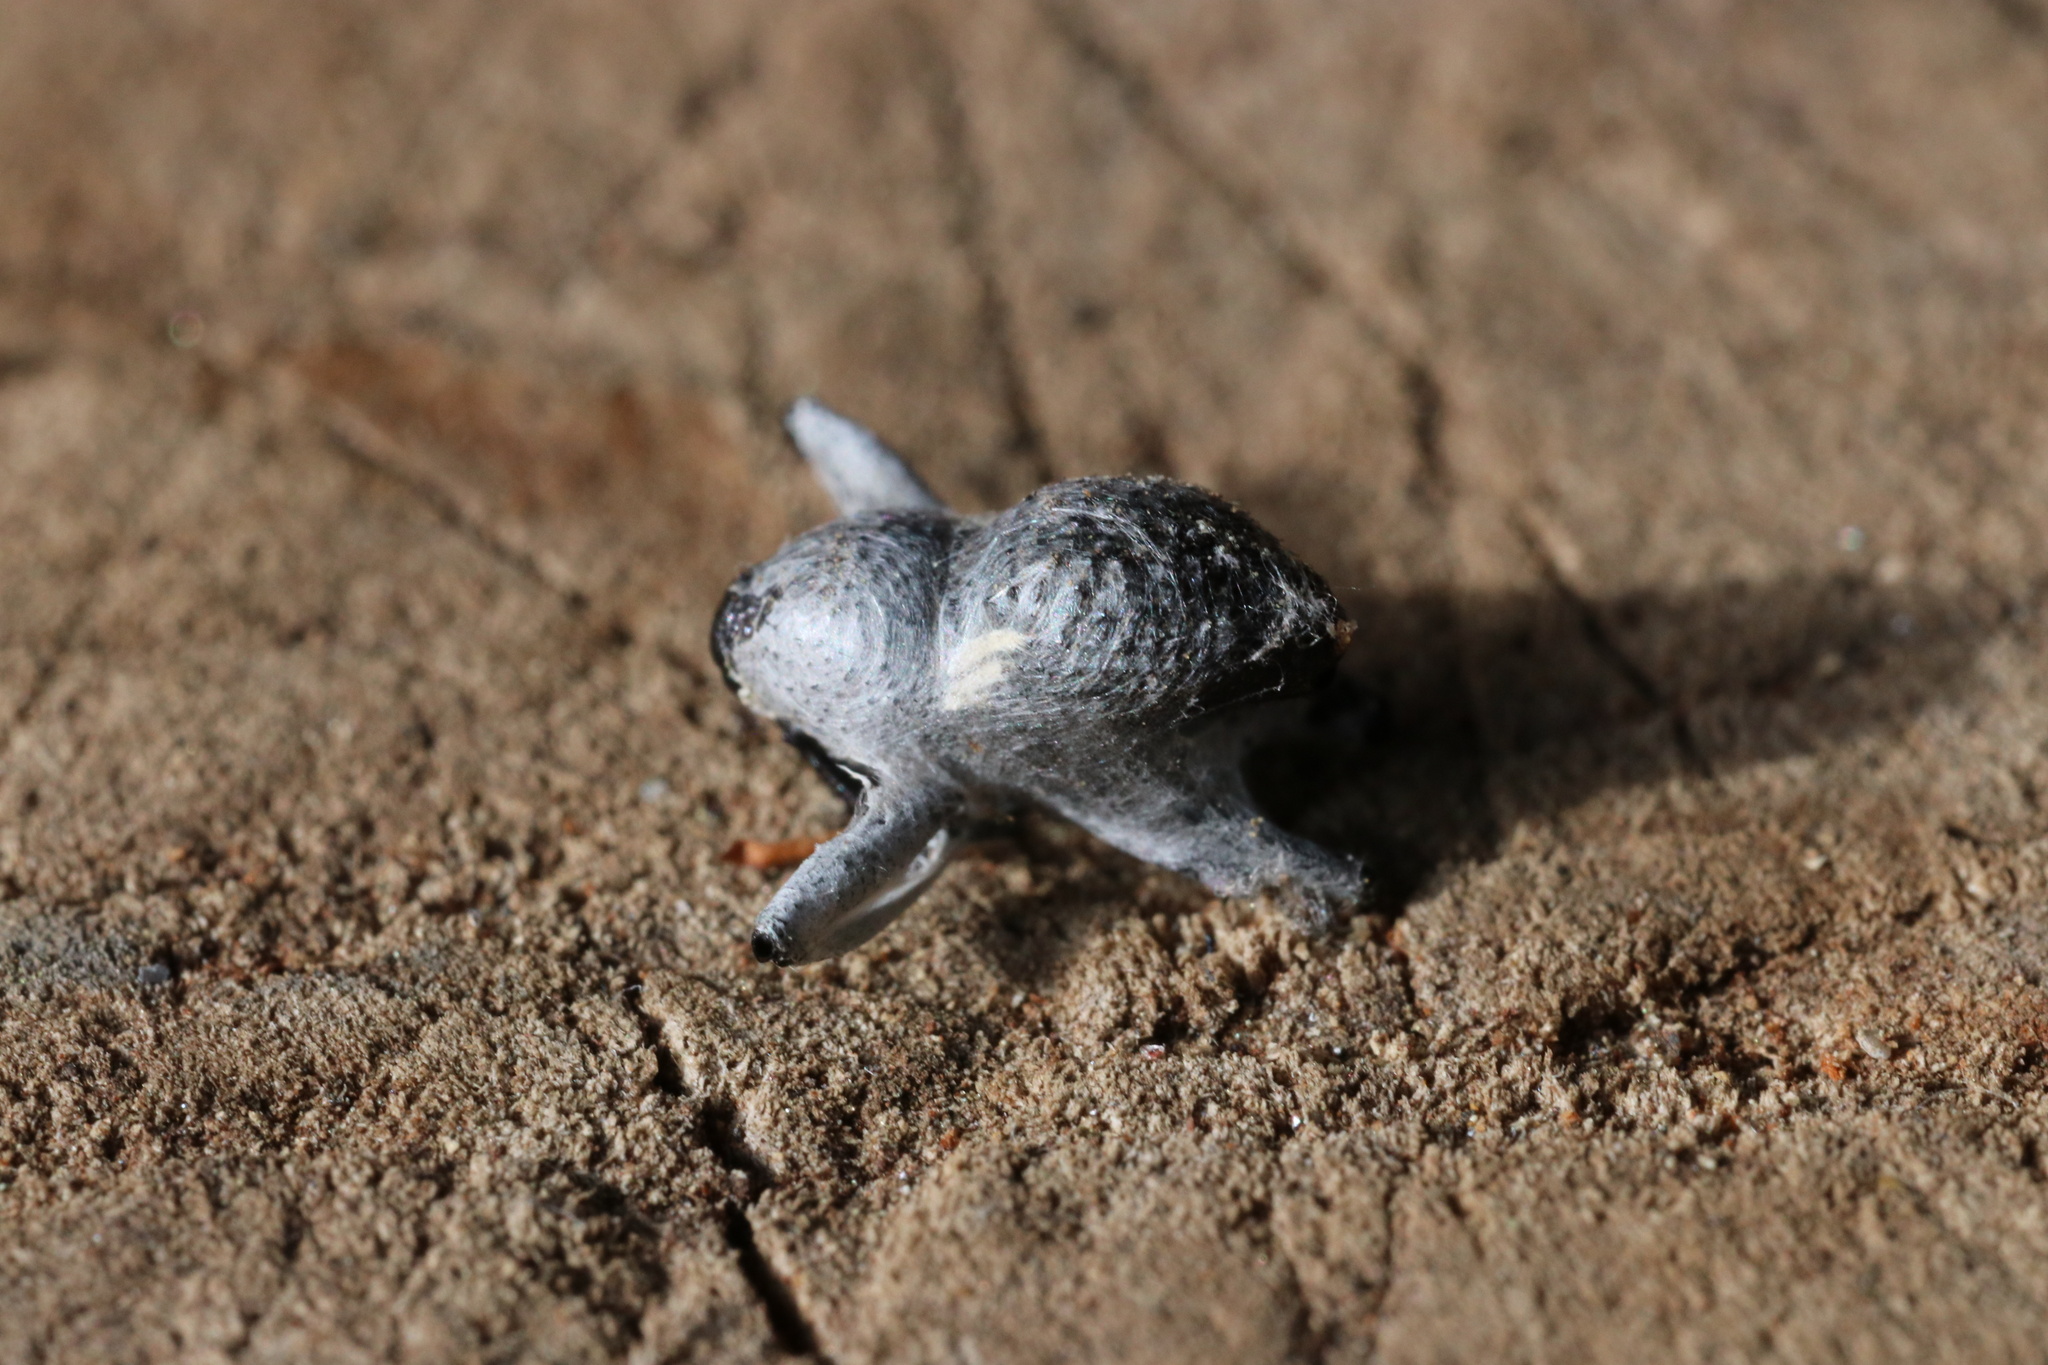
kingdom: Animalia
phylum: Arthropoda
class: Insecta
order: Coleoptera
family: Curculionidae
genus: Rhyephenes
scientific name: Rhyephenes humeralis
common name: Araè±ita chilena del pino
